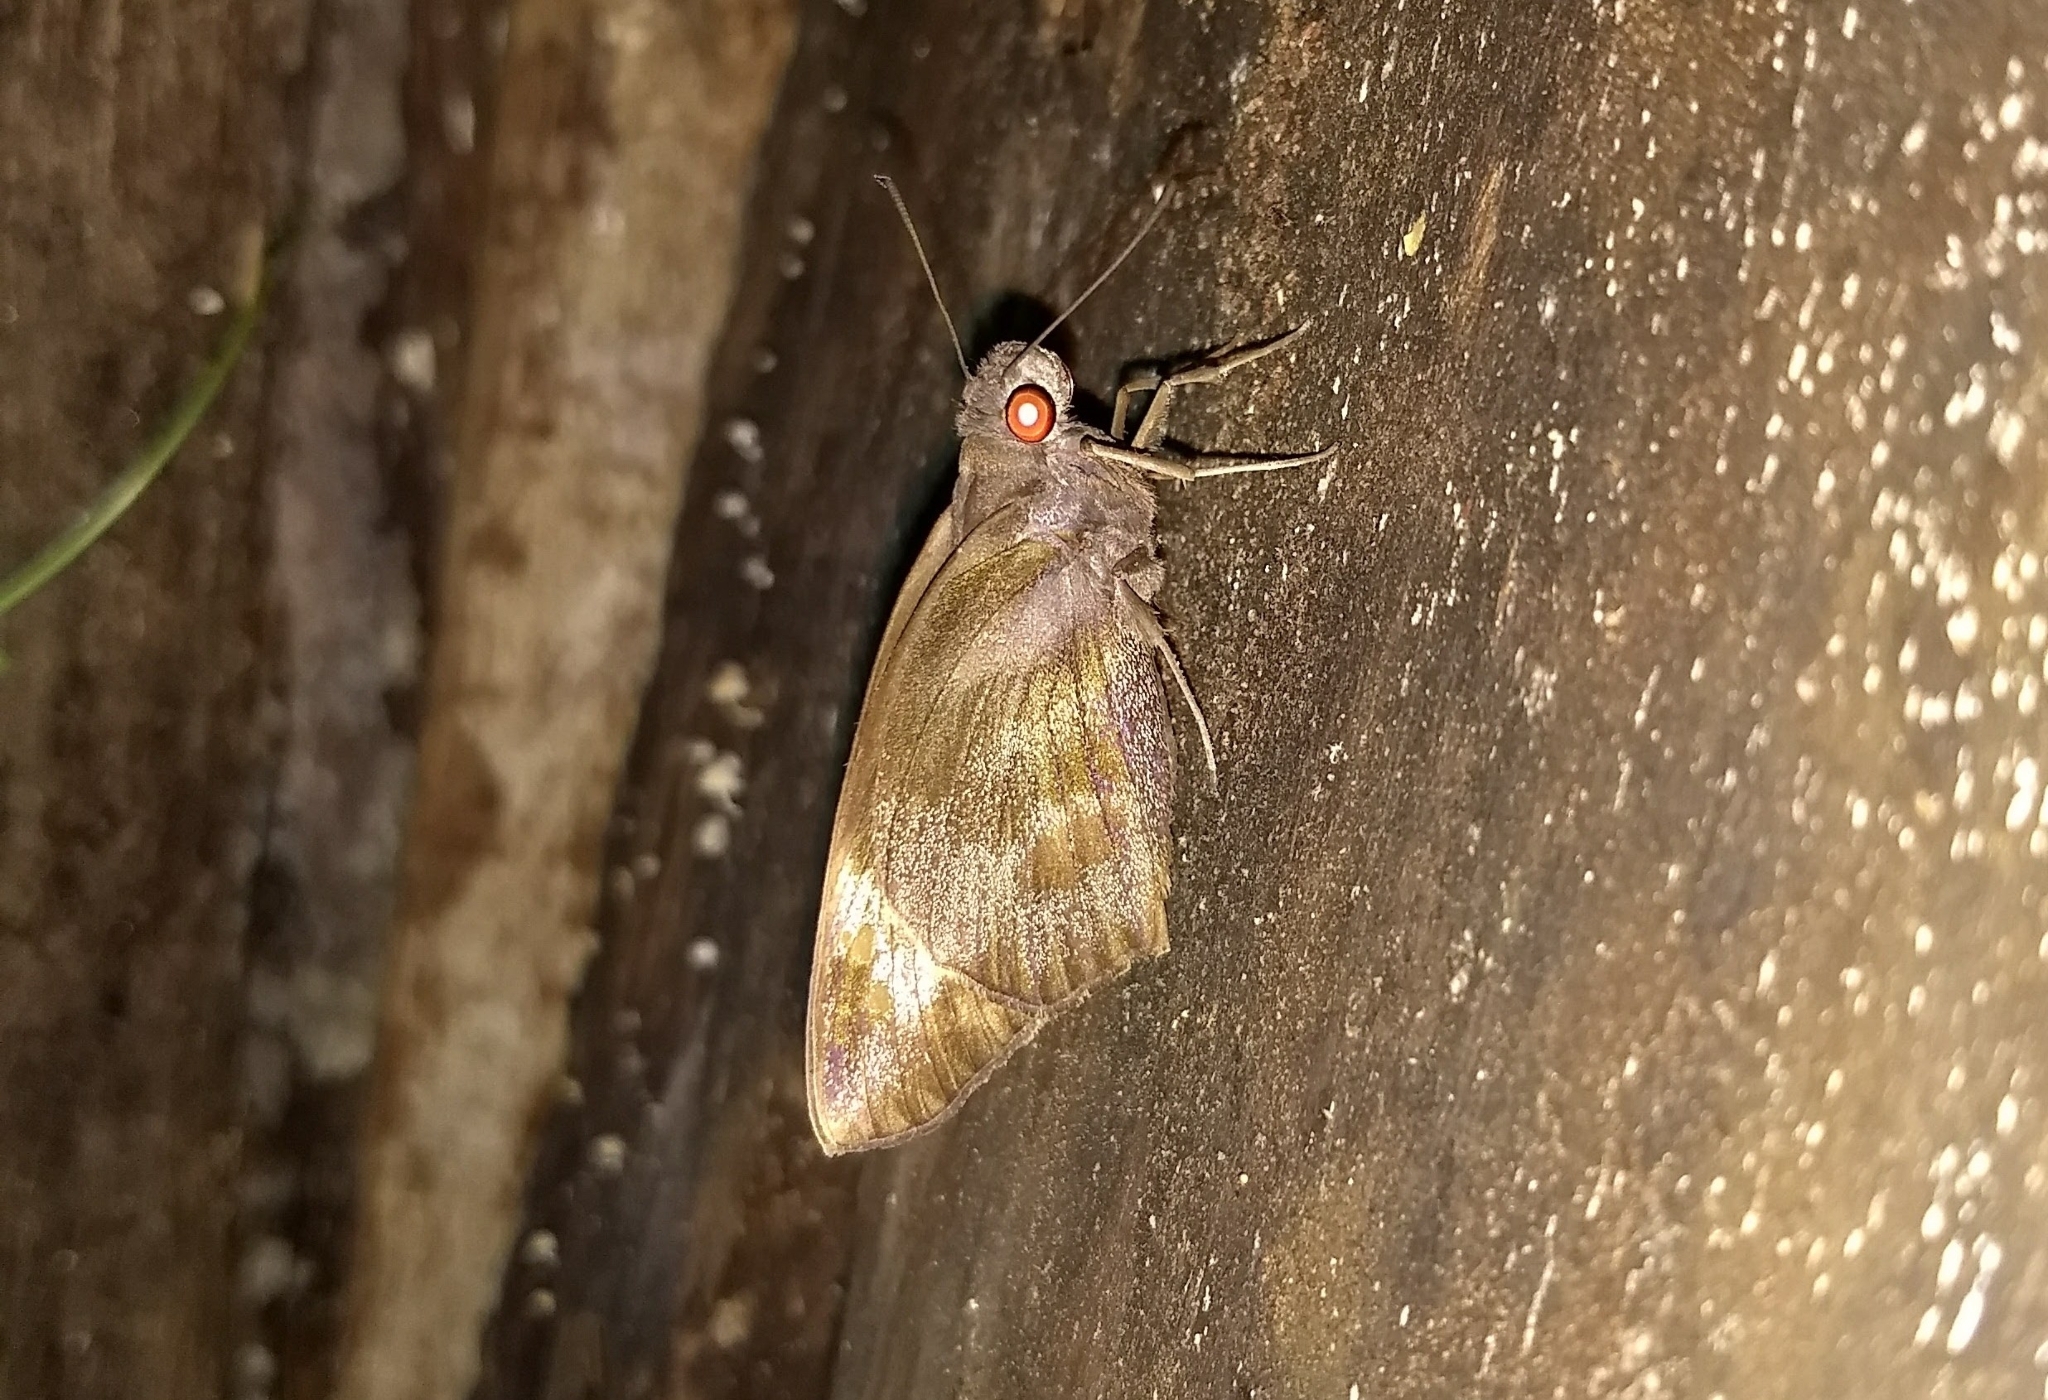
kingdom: Animalia
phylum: Arthropoda
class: Insecta
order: Lepidoptera
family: Hesperiidae
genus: Gangara
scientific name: Gangara thyrsis
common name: Giant redeye
